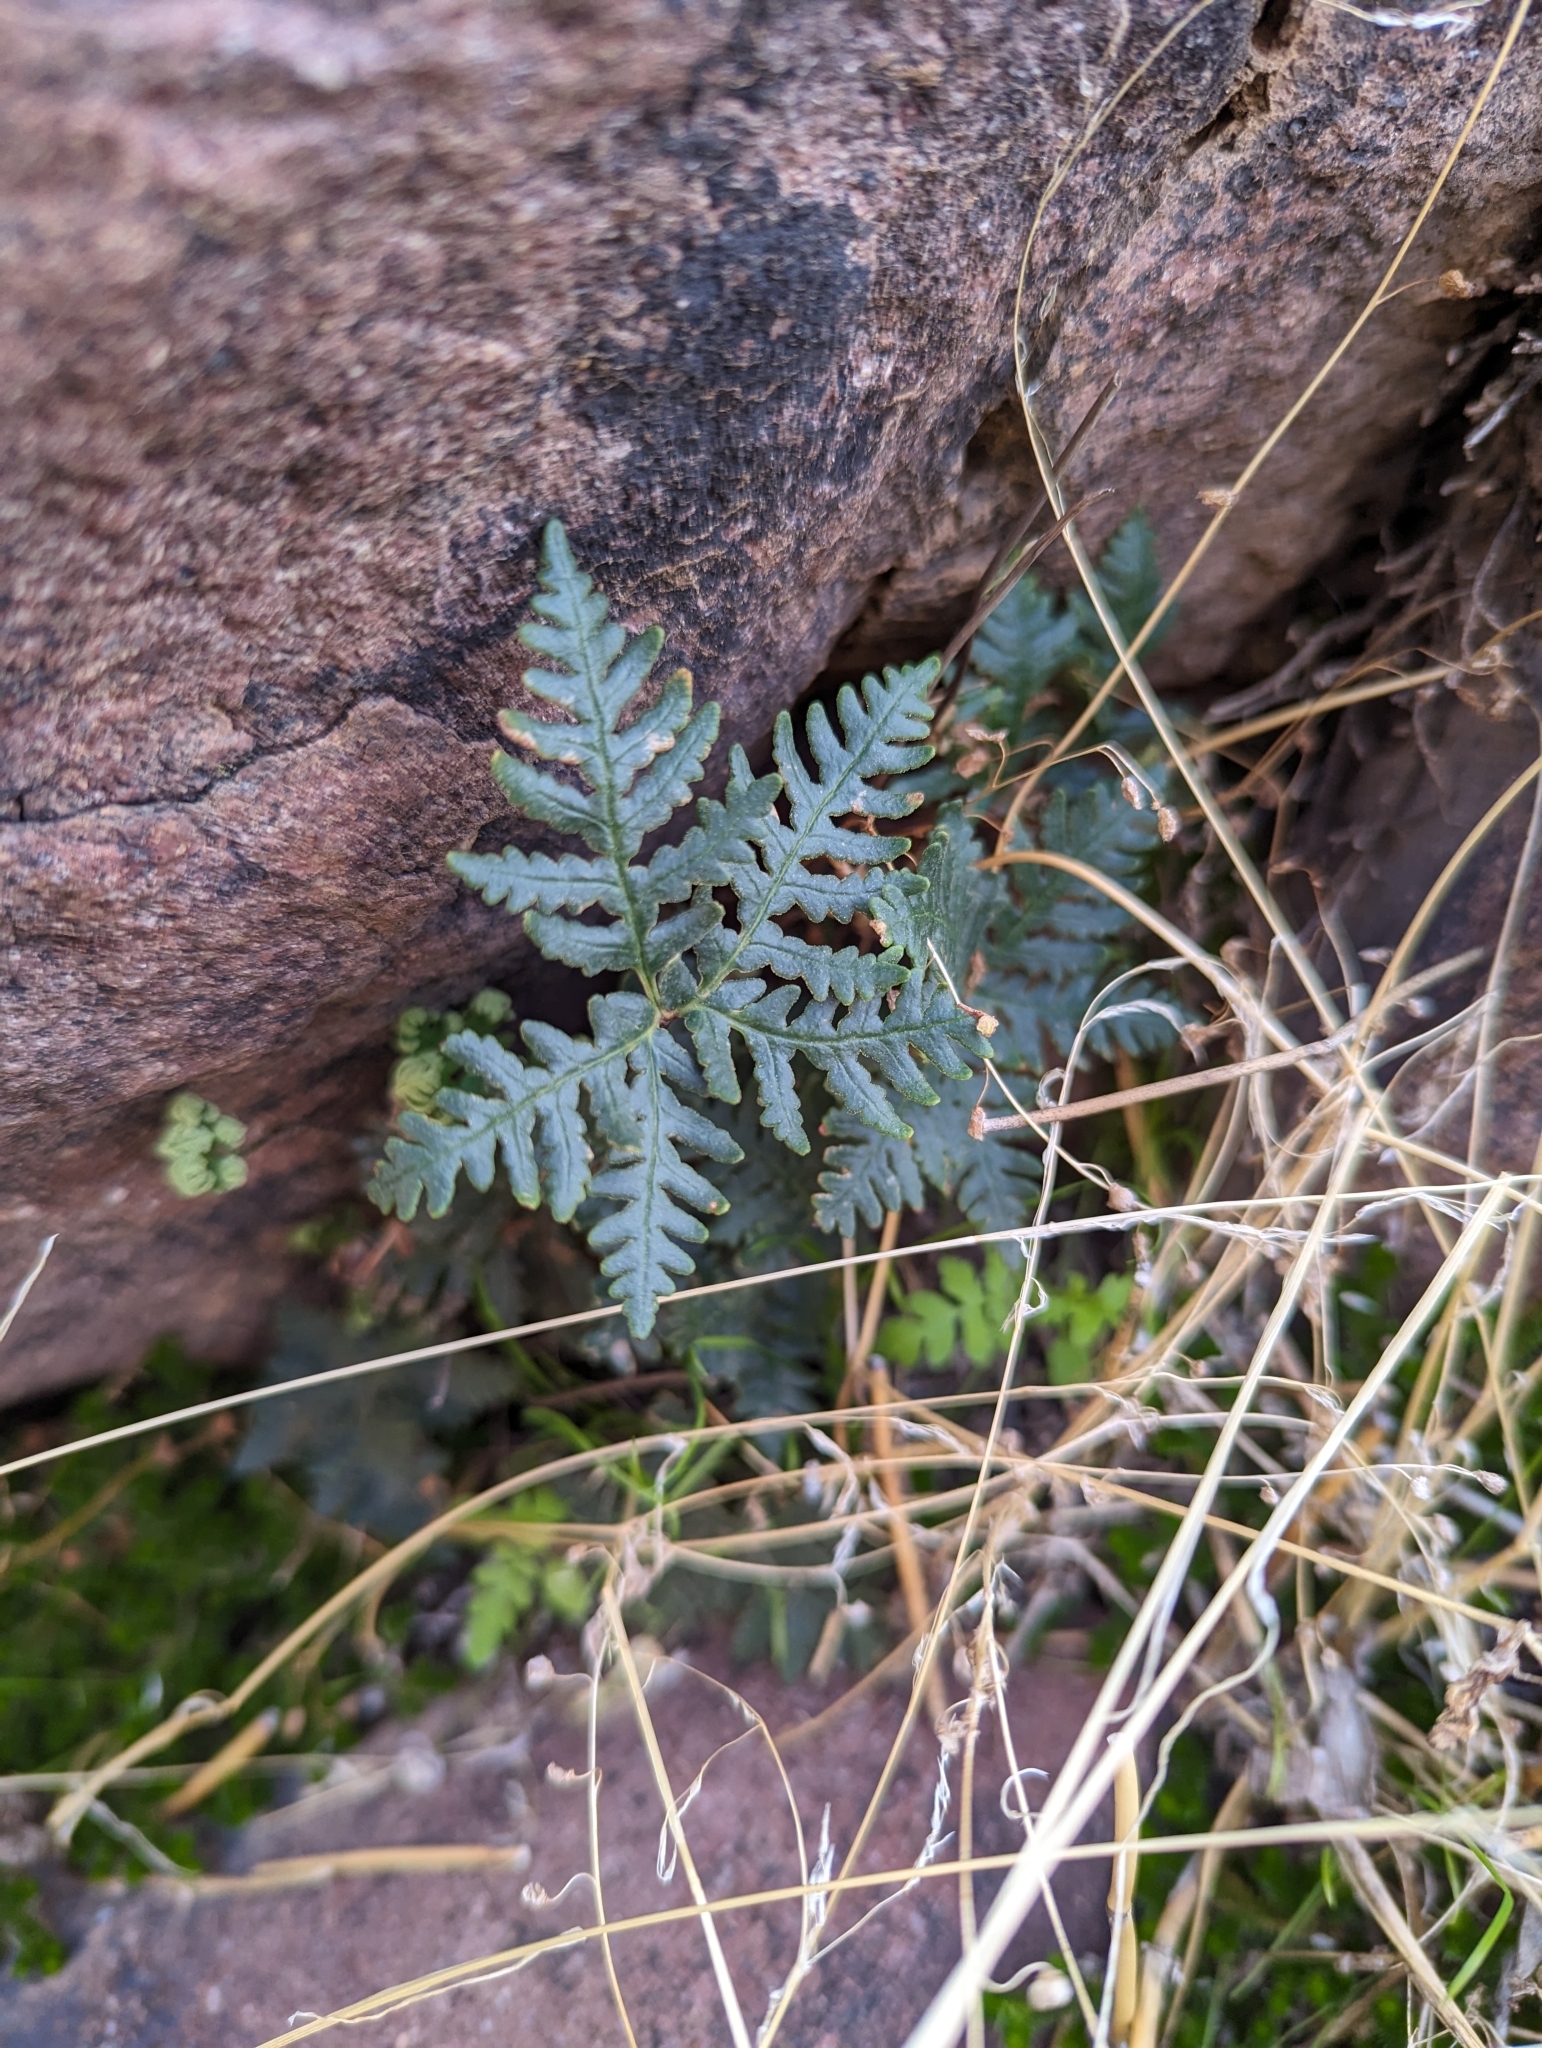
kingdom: Plantae
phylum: Tracheophyta
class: Polypodiopsida
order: Polypodiales
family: Pteridaceae
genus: Notholaena
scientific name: Notholaena standleyi
